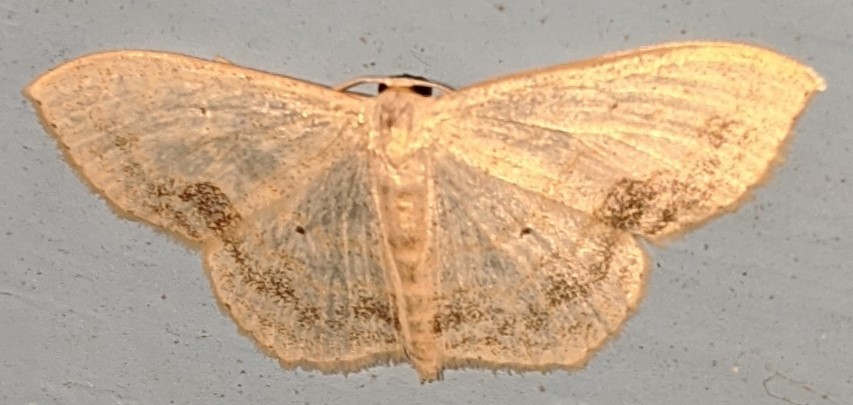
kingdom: Animalia
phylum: Arthropoda
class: Insecta
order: Lepidoptera
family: Geometridae
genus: Scopula
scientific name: Scopula limboundata
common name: Large lace border
